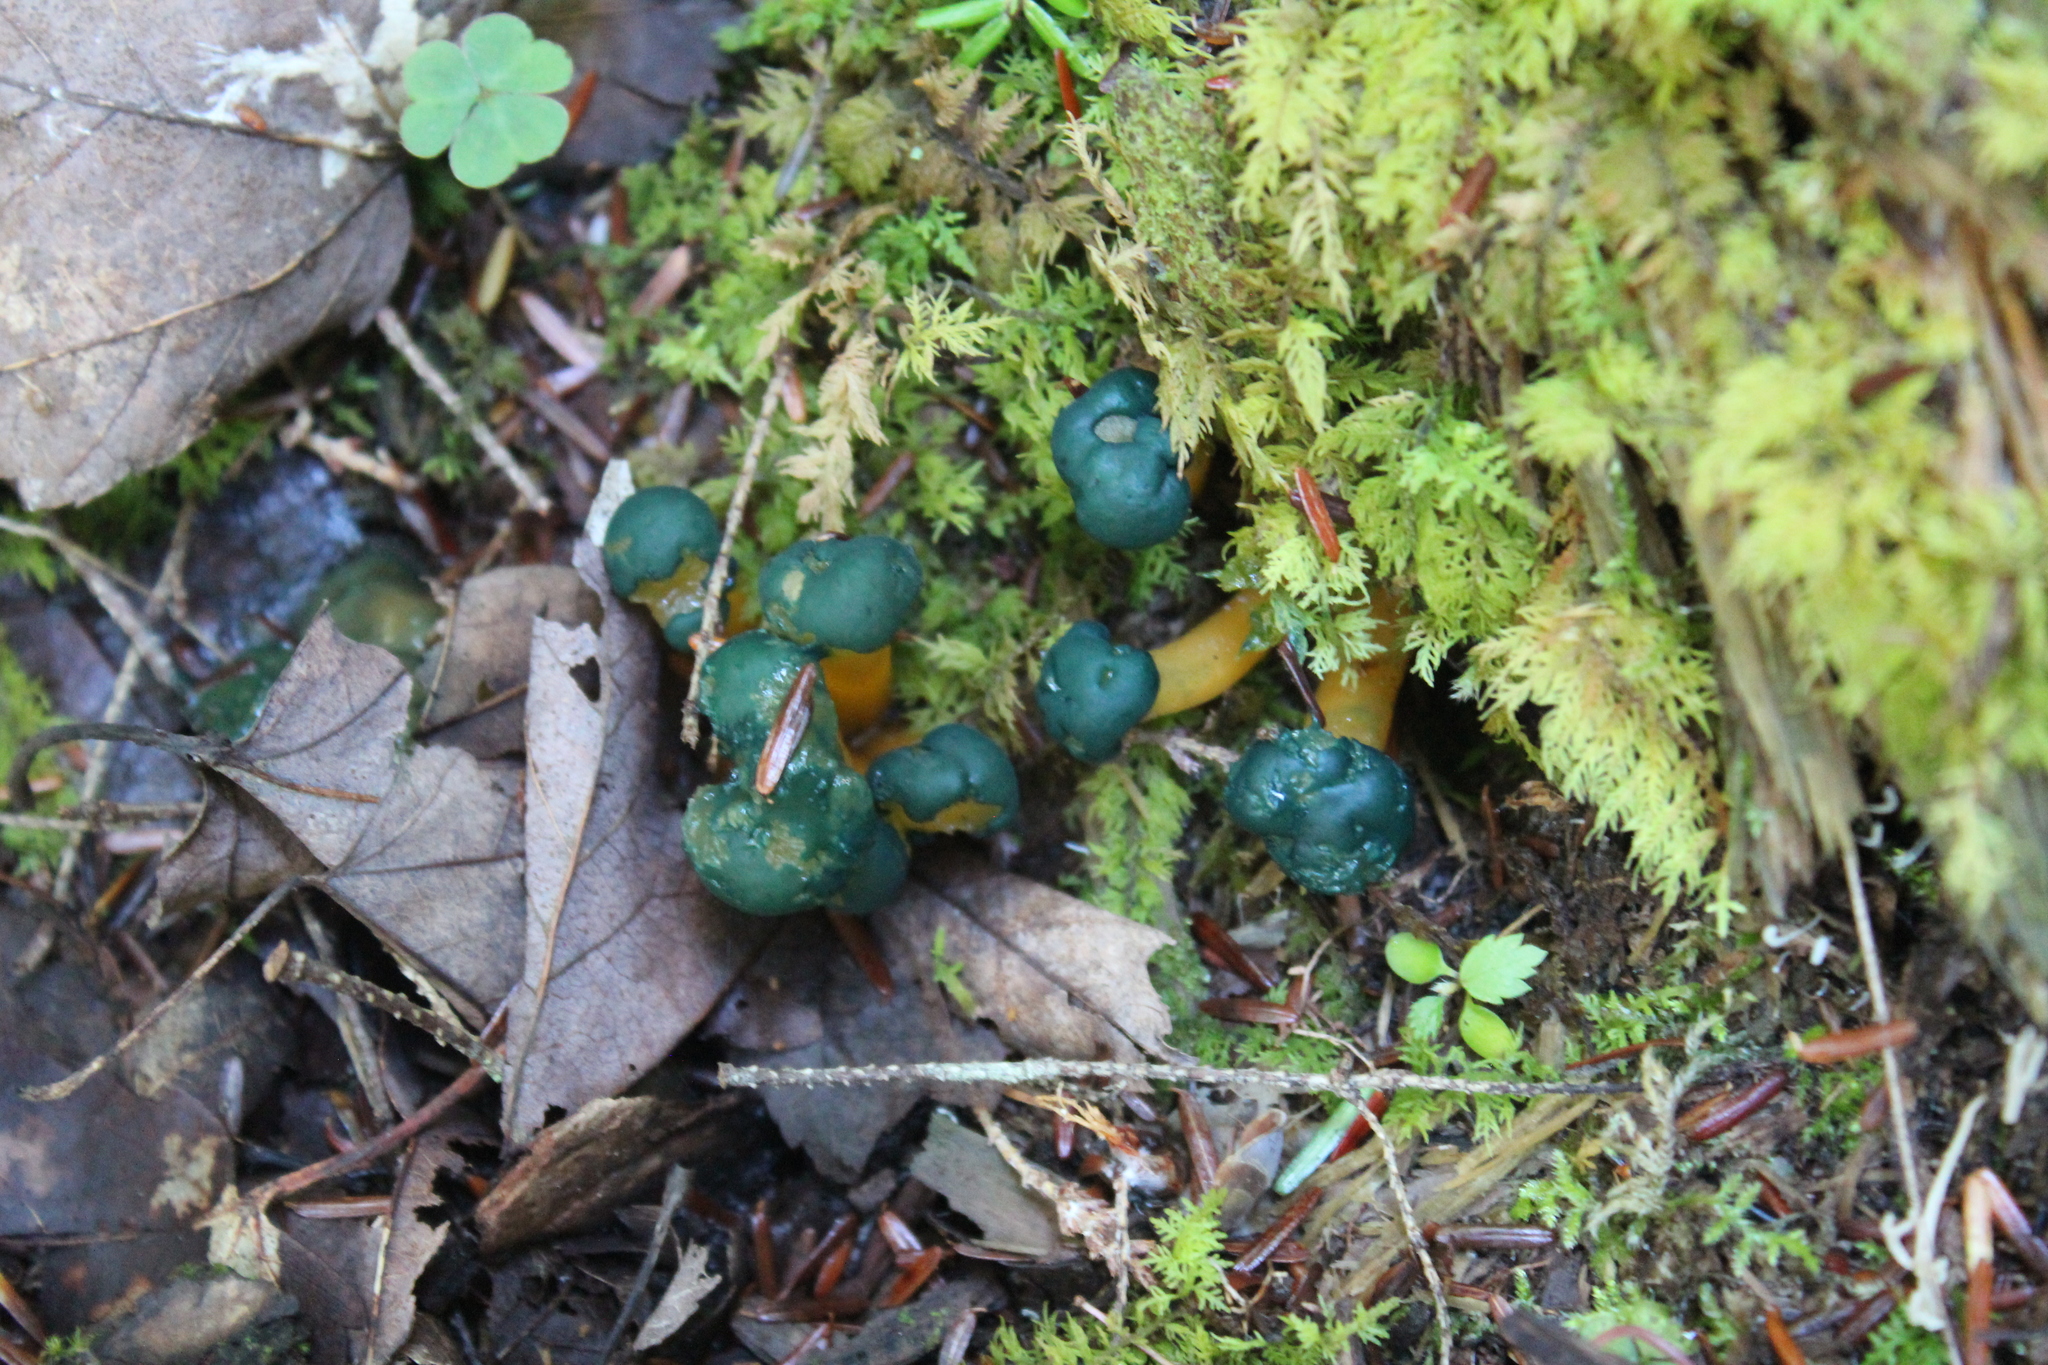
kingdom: Fungi
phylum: Ascomycota
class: Leotiomycetes
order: Leotiales
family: Leotiaceae
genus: Leotia
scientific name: Leotia lubrica
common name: Jellybaby
